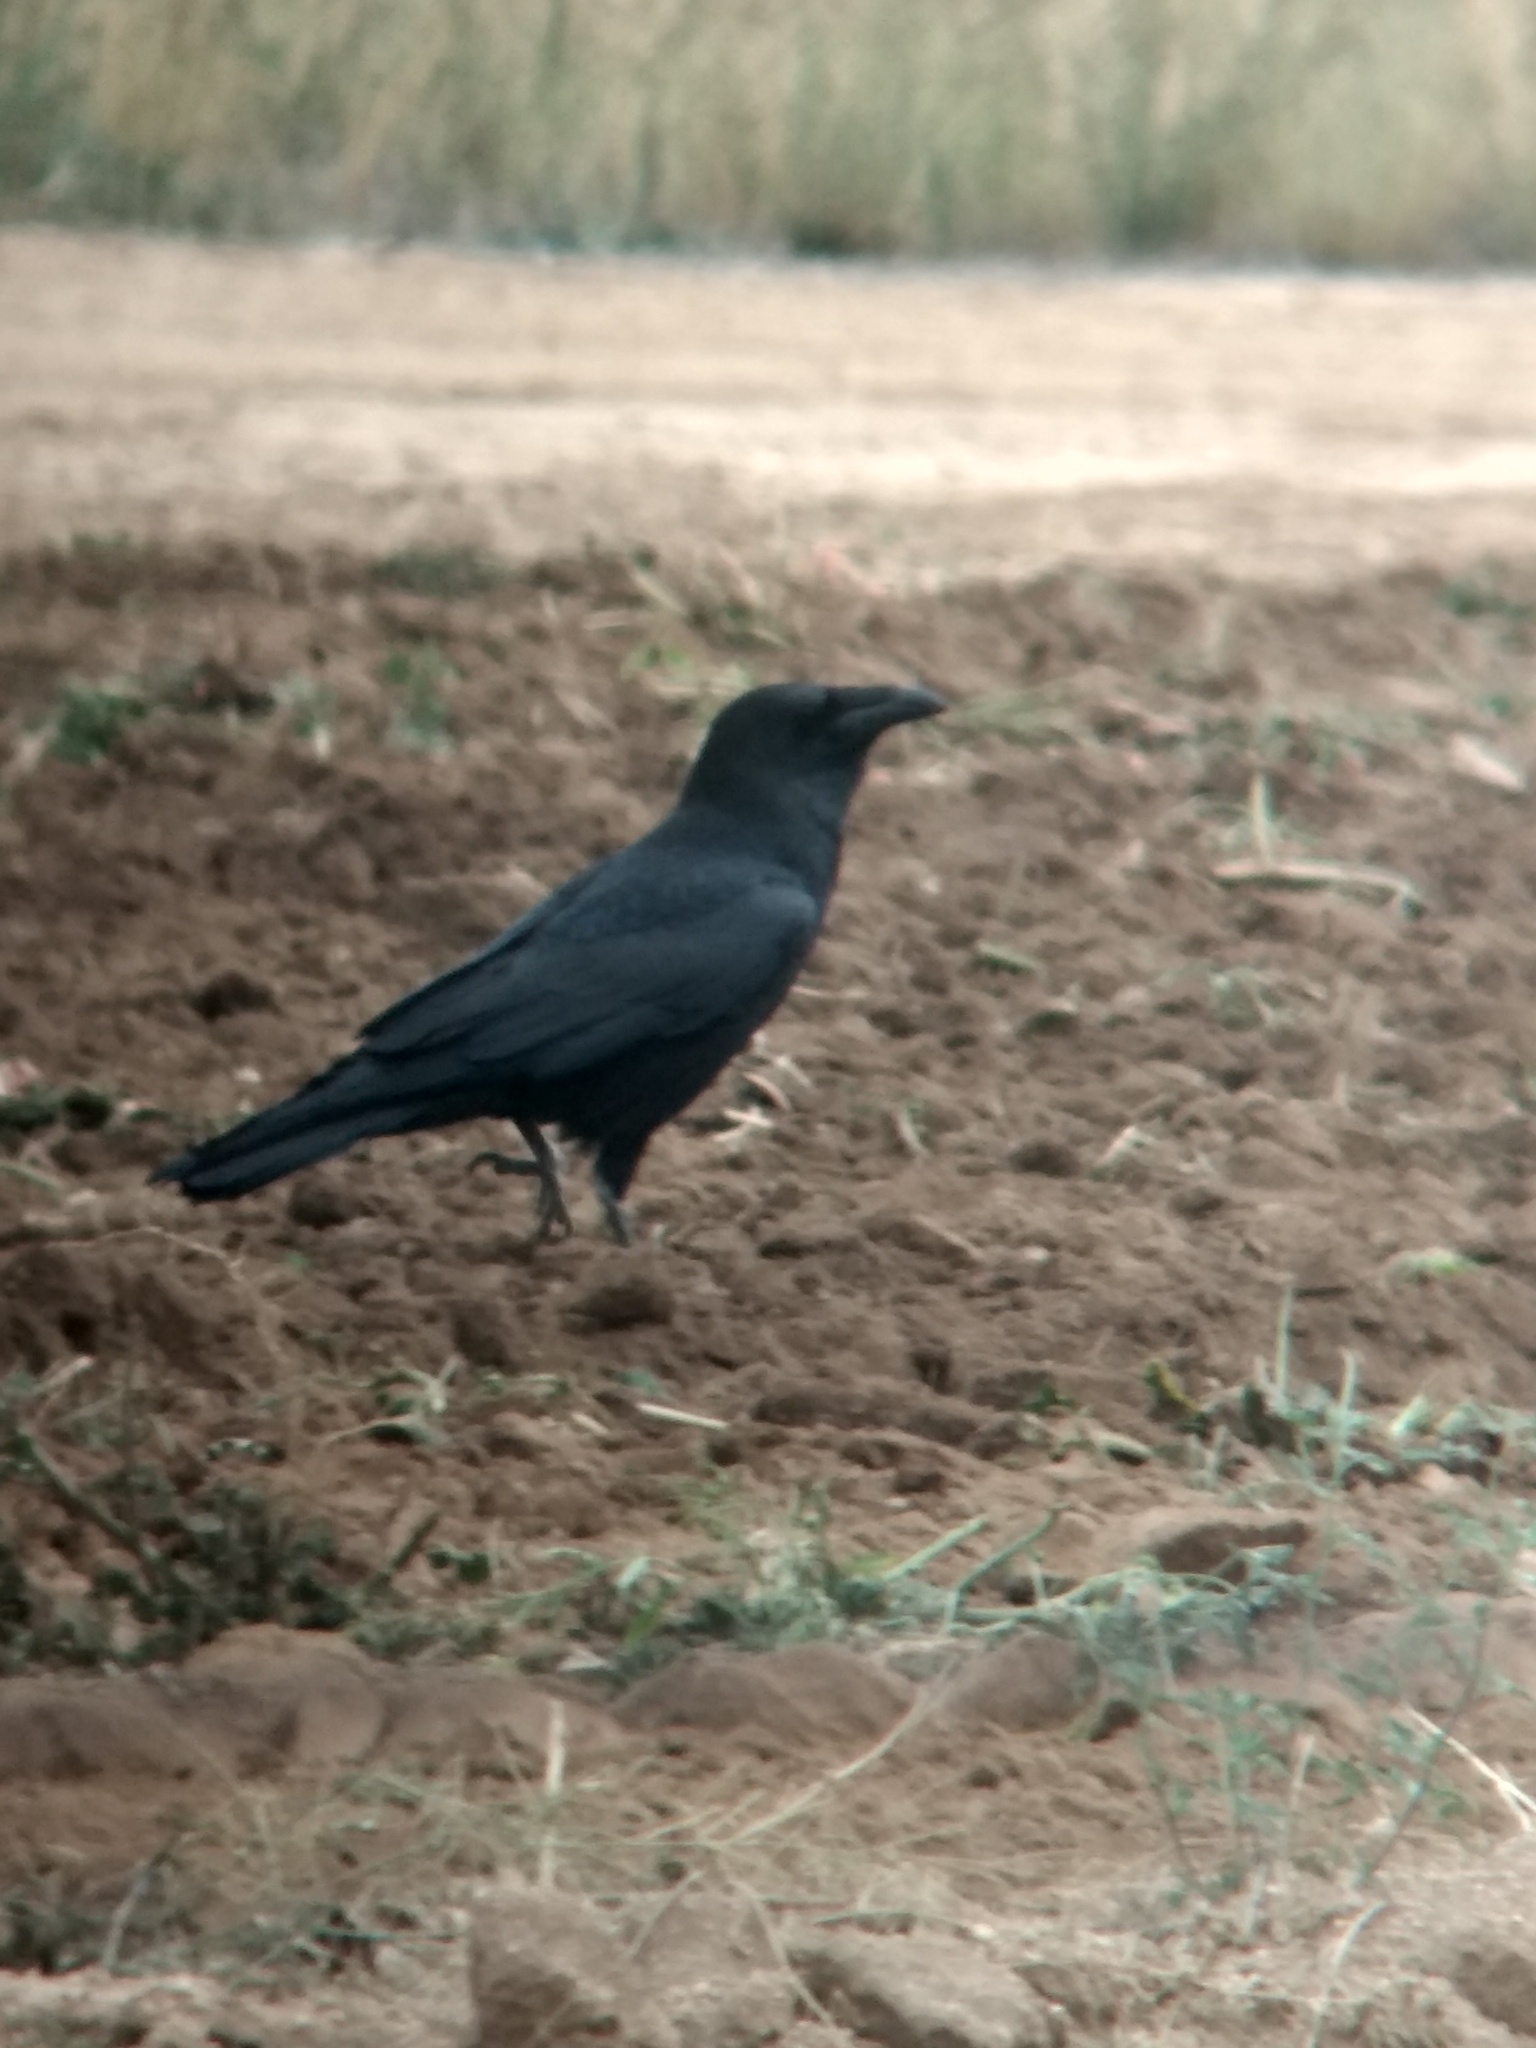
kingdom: Animalia
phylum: Chordata
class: Aves
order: Passeriformes
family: Corvidae
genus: Corvus
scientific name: Corvus corax
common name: Common raven
